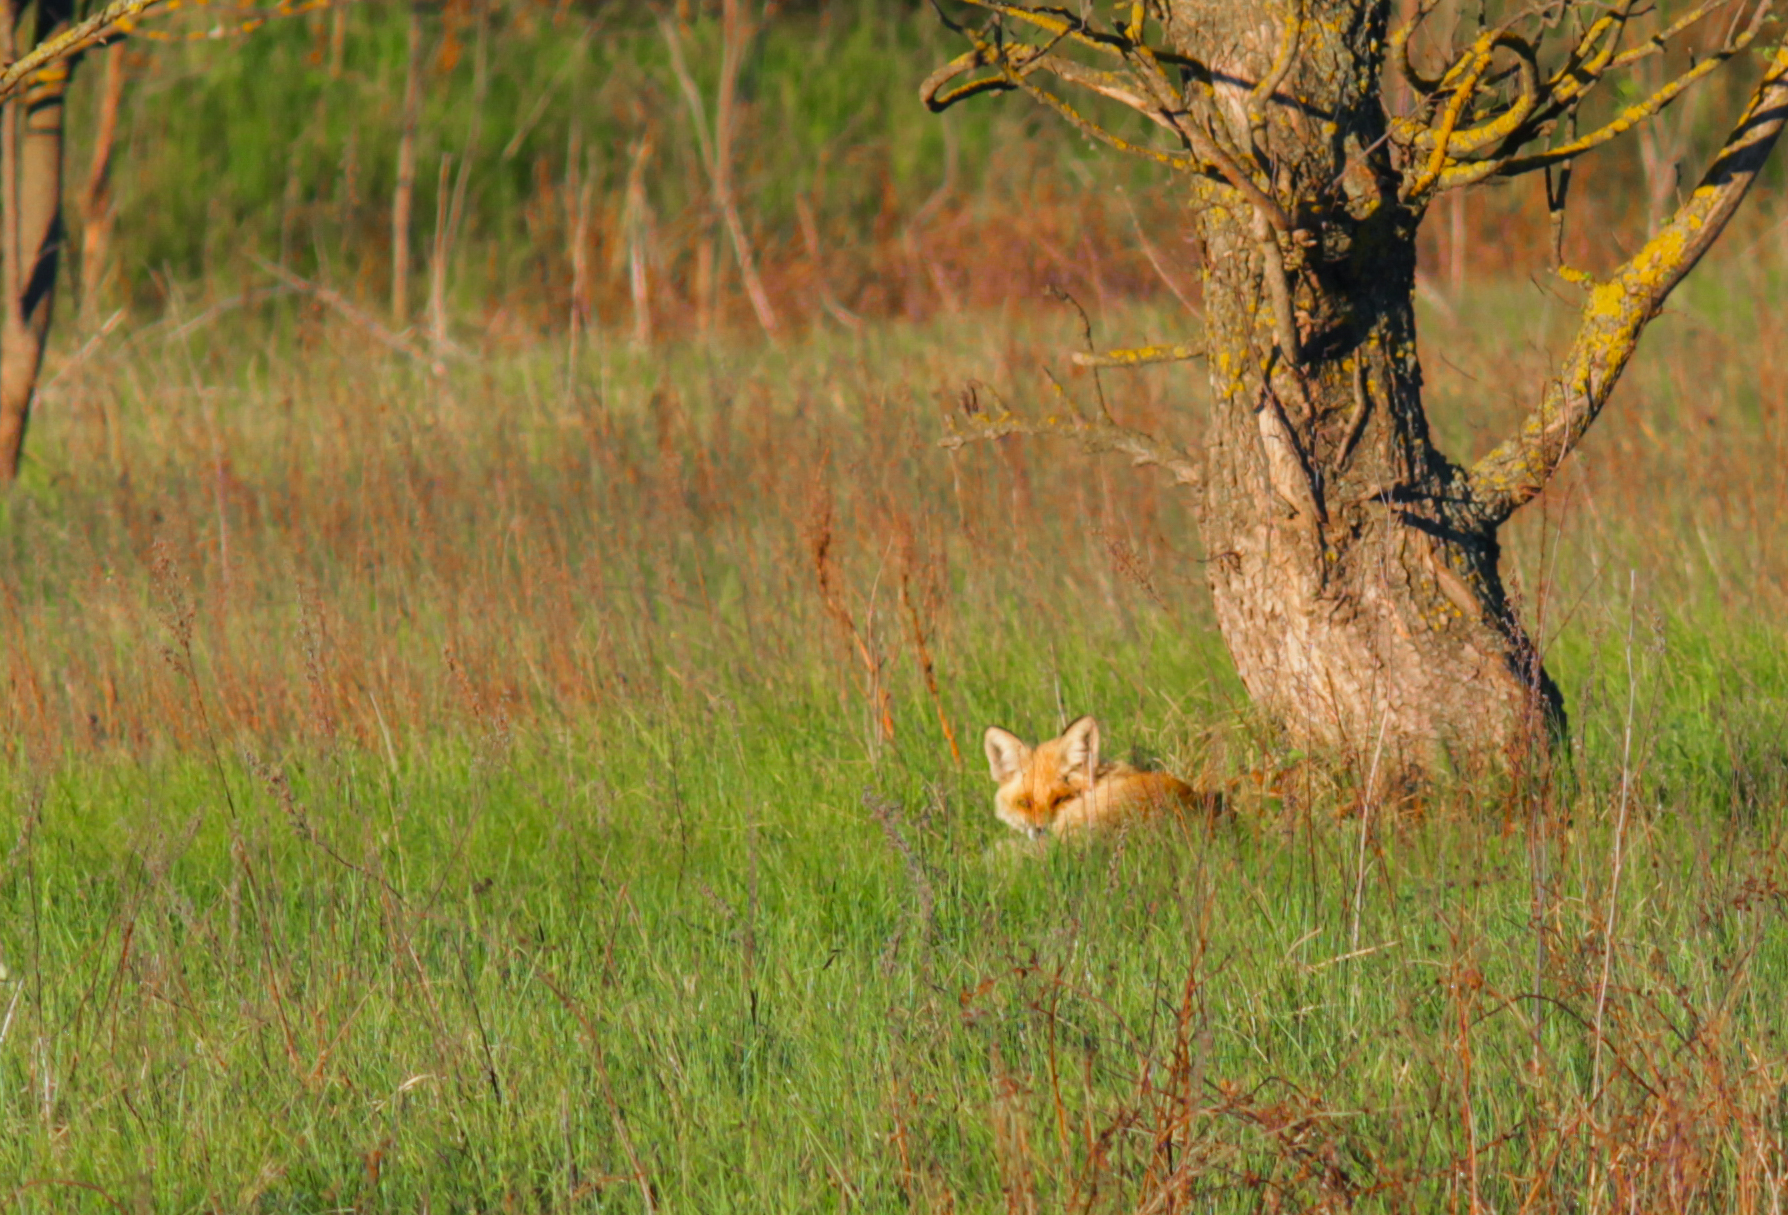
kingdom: Animalia
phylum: Chordata
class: Mammalia
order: Carnivora
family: Canidae
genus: Vulpes
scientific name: Vulpes vulpes
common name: Red fox
